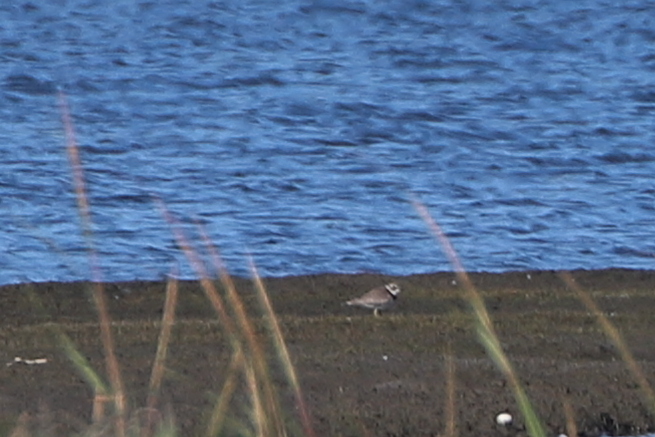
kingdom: Animalia
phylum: Chordata
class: Aves
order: Charadriiformes
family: Charadriidae
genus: Charadrius
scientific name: Charadrius semipalmatus
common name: Semipalmated plover
